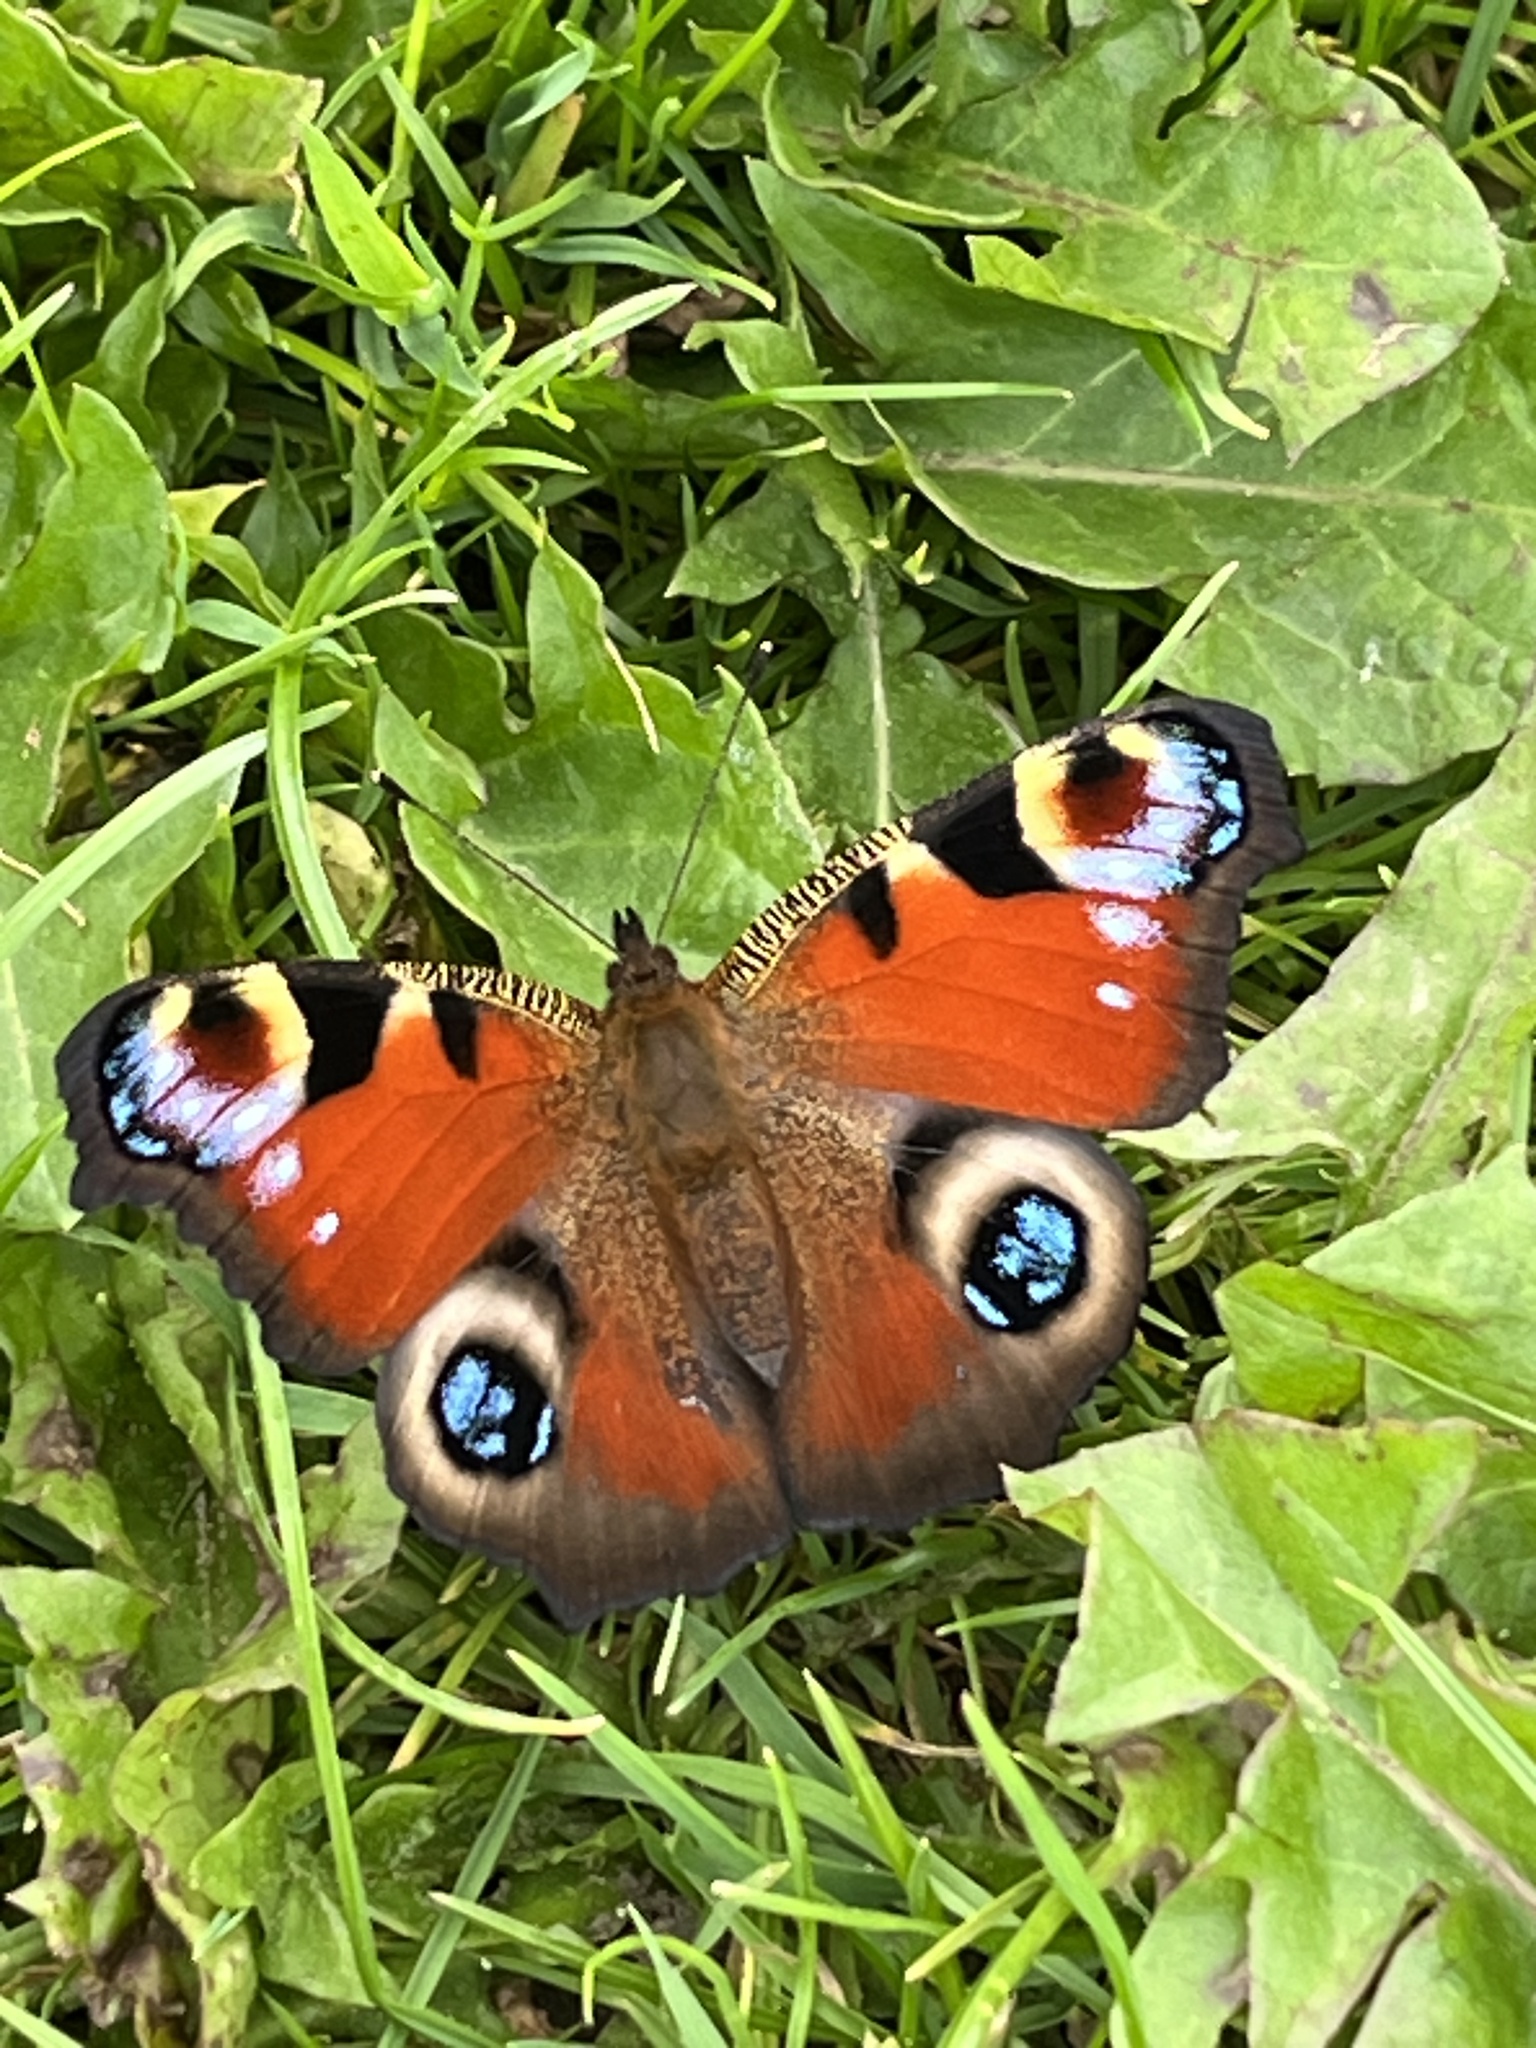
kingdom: Animalia
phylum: Arthropoda
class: Insecta
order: Lepidoptera
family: Nymphalidae
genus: Aglais
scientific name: Aglais io
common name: Peacock
